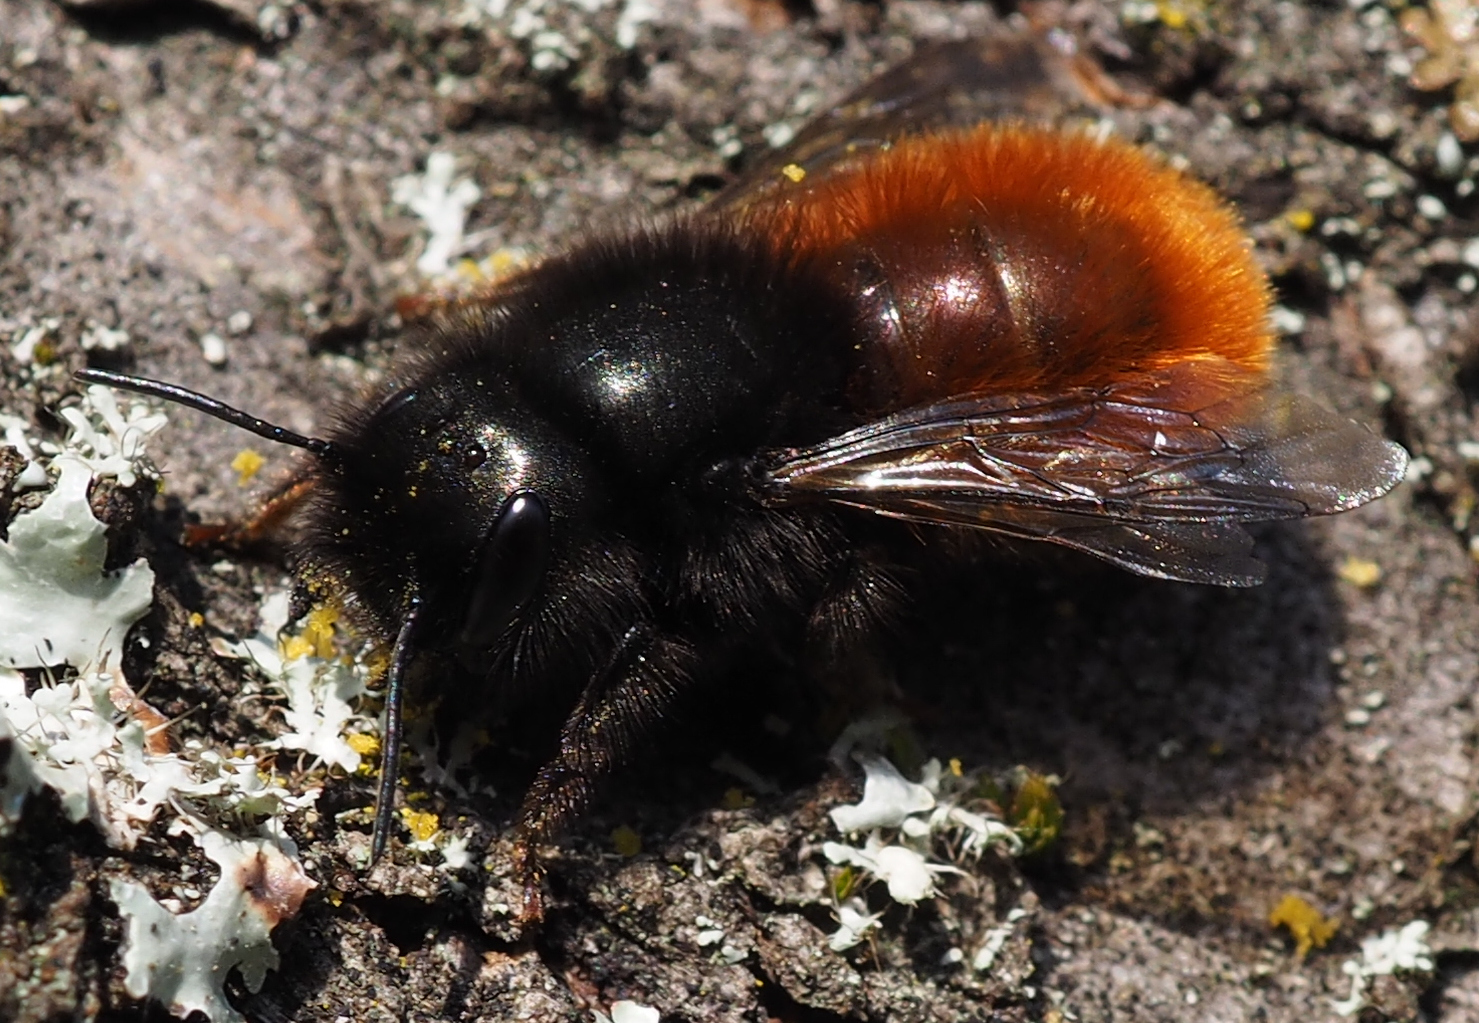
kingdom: Animalia
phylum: Arthropoda
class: Insecta
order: Hymenoptera
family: Megachilidae
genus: Osmia
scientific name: Osmia cornuta
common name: Mason bee
